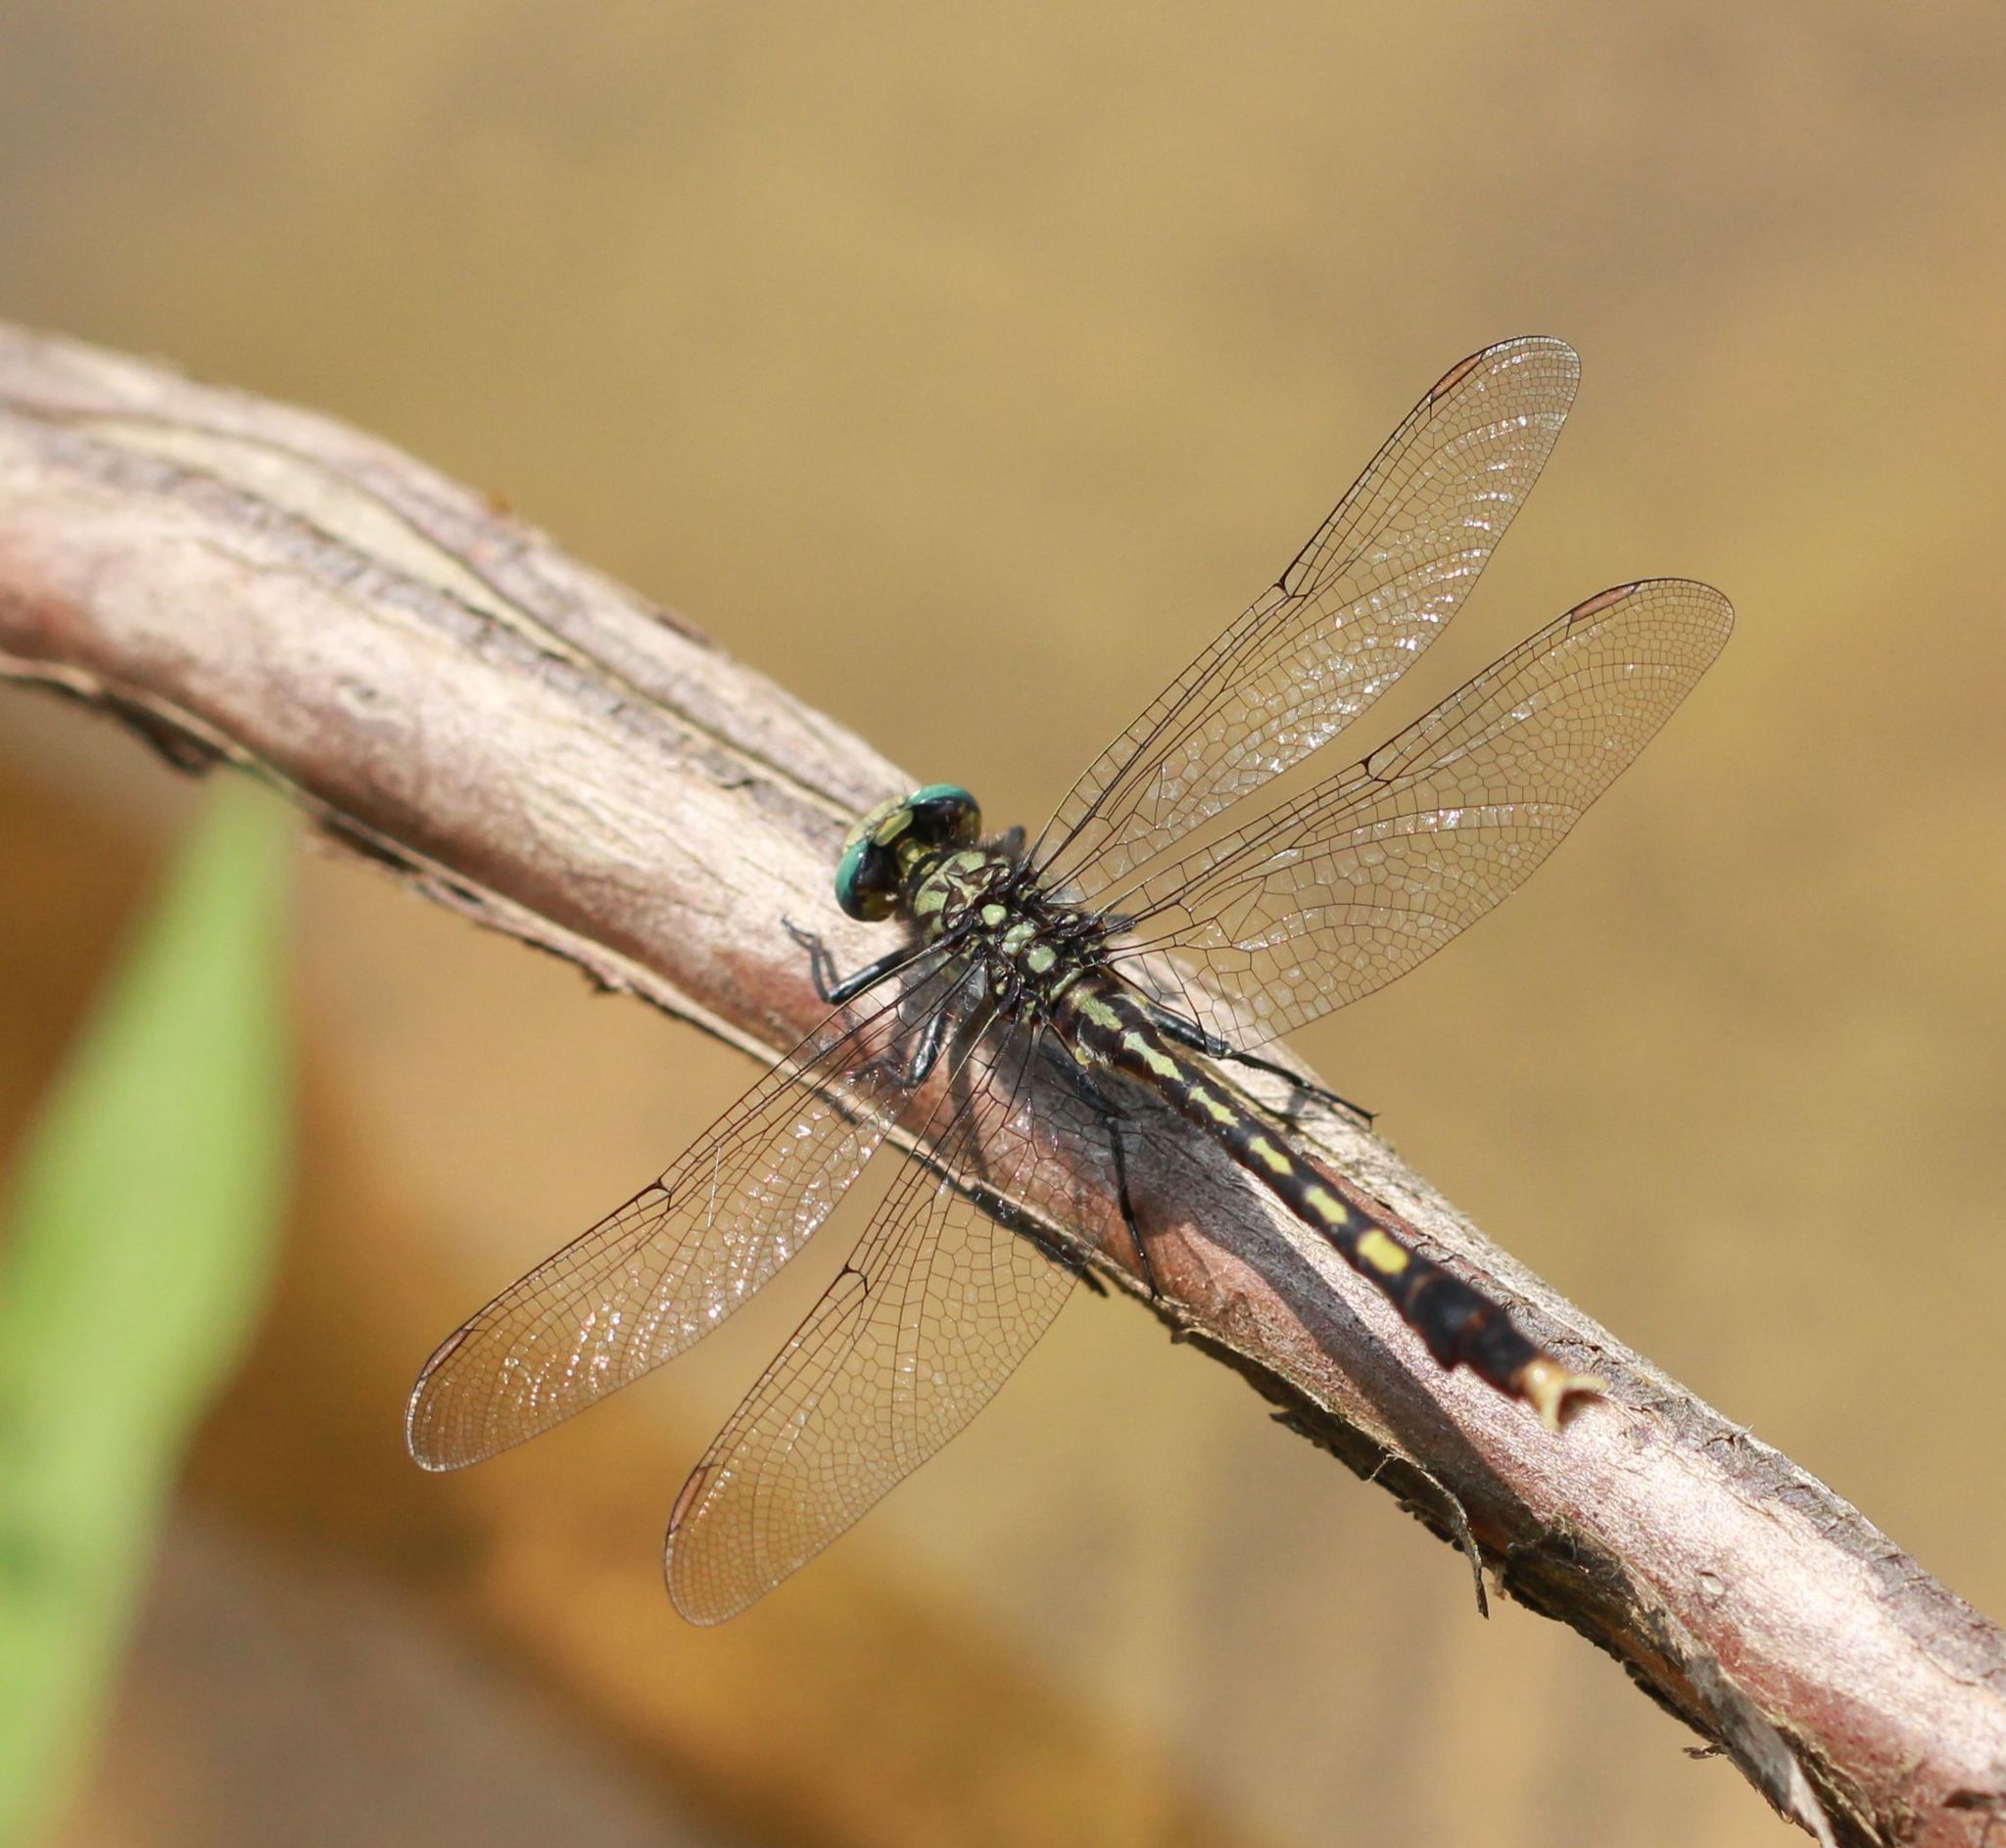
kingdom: Animalia
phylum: Arthropoda
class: Insecta
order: Odonata
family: Gomphidae
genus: Arigomphus
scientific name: Arigomphus villosipes
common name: Unicorn clubtail
